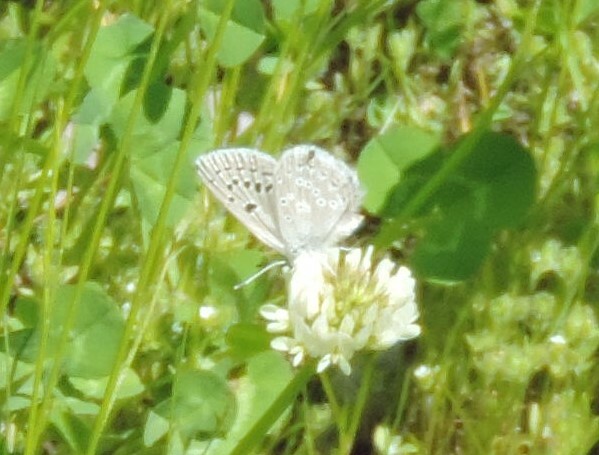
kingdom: Animalia
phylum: Arthropoda
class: Insecta
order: Lepidoptera
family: Lycaenidae
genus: Icaricia
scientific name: Icaricia icarioides
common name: Boisduval's blue
